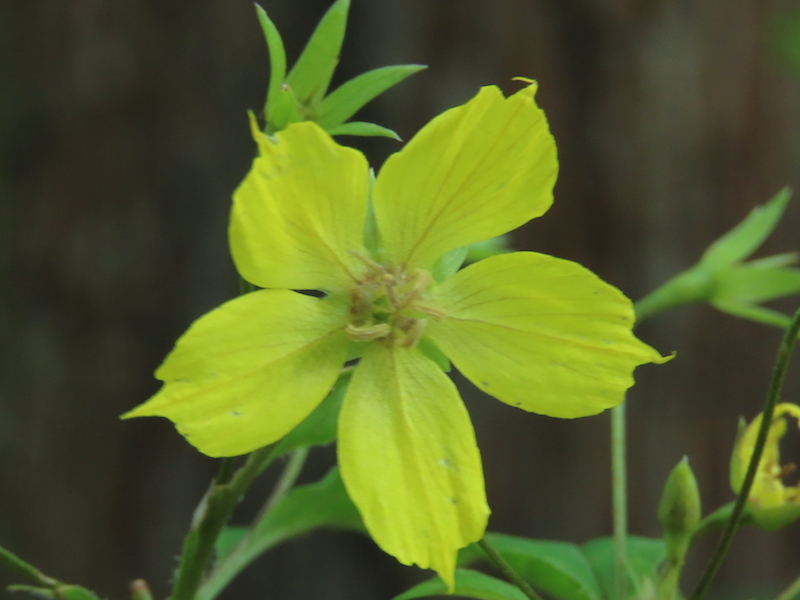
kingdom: Plantae
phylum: Tracheophyta
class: Magnoliopsida
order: Ericales
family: Primulaceae
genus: Lysimachia
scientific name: Lysimachia ciliata
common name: Fringed loosestrife
